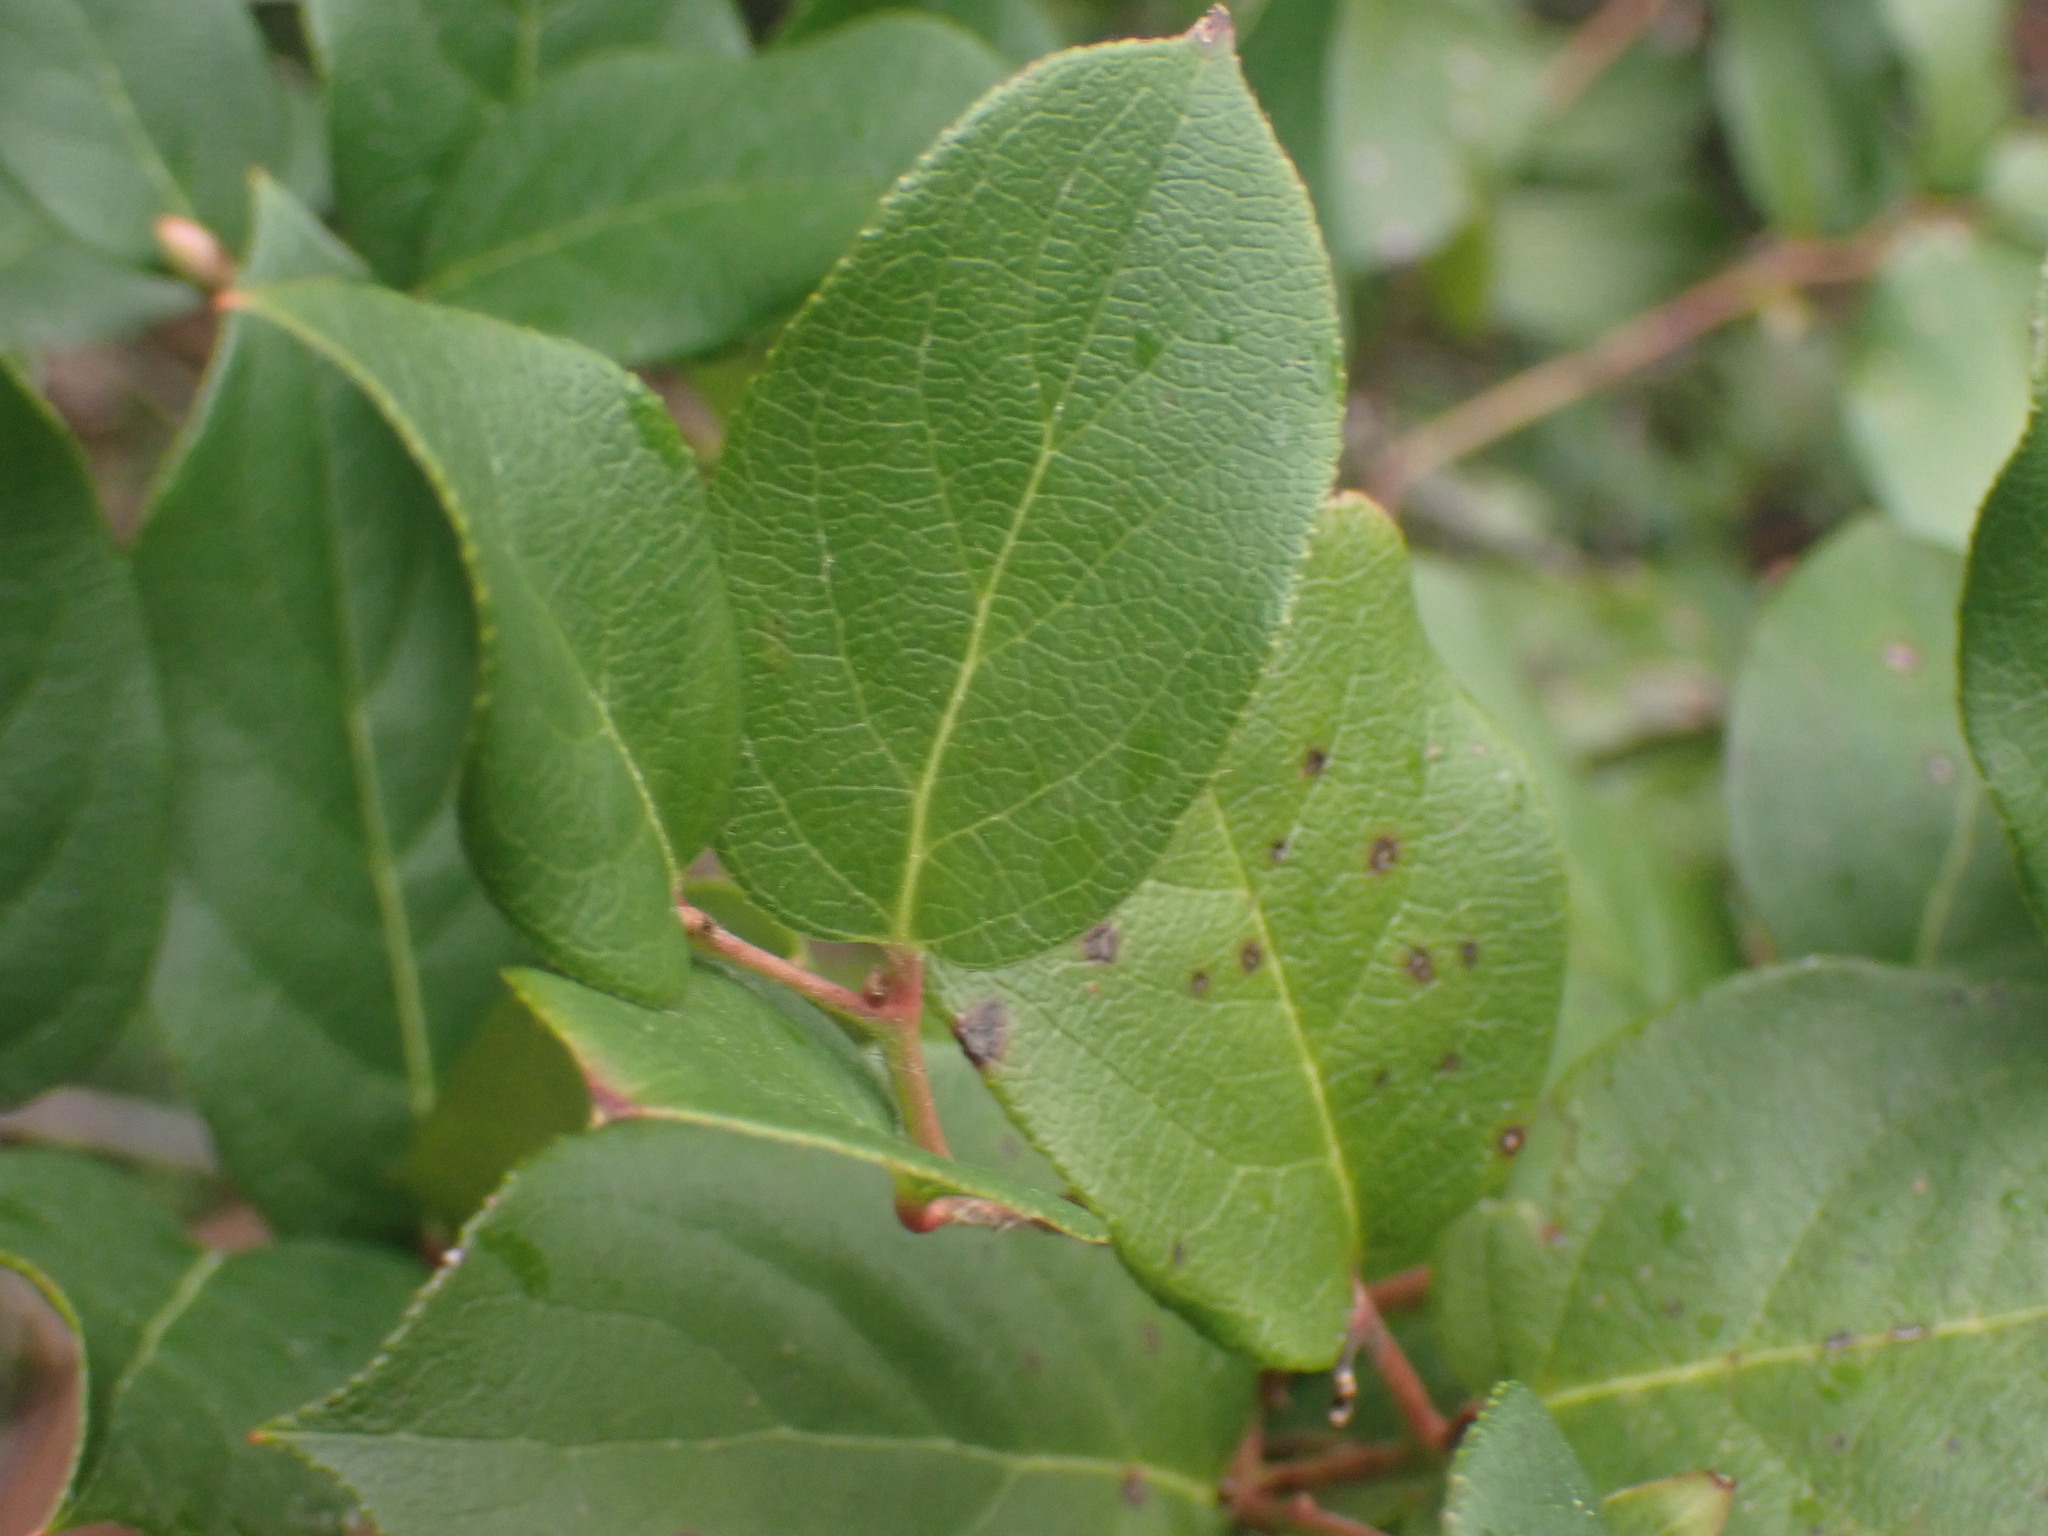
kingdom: Plantae
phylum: Tracheophyta
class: Magnoliopsida
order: Ericales
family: Ericaceae
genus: Gaultheria
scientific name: Gaultheria shallon
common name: Shallon
